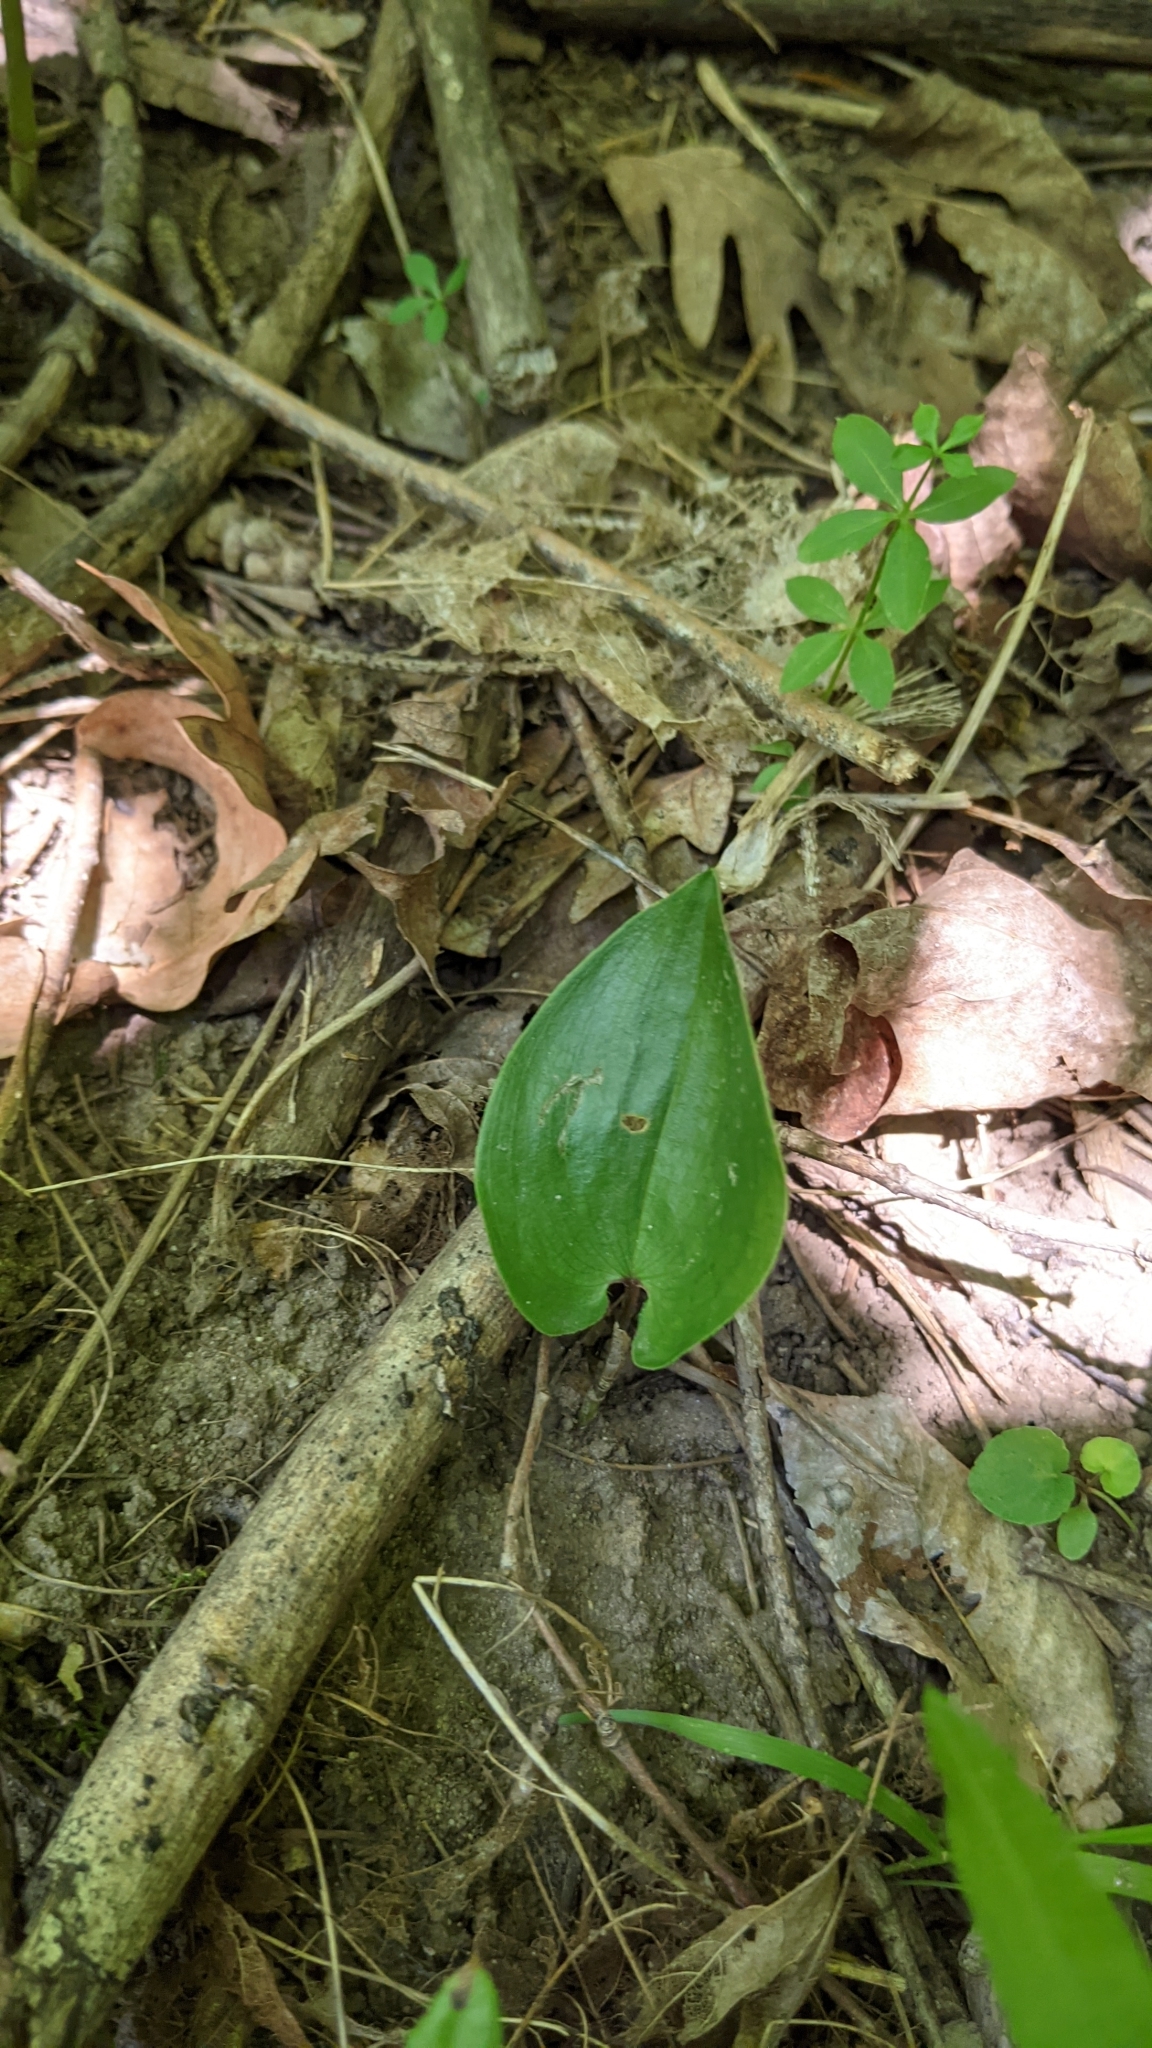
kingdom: Plantae
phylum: Tracheophyta
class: Liliopsida
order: Asparagales
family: Asparagaceae
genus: Maianthemum
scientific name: Maianthemum canadense
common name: False lily-of-the-valley
